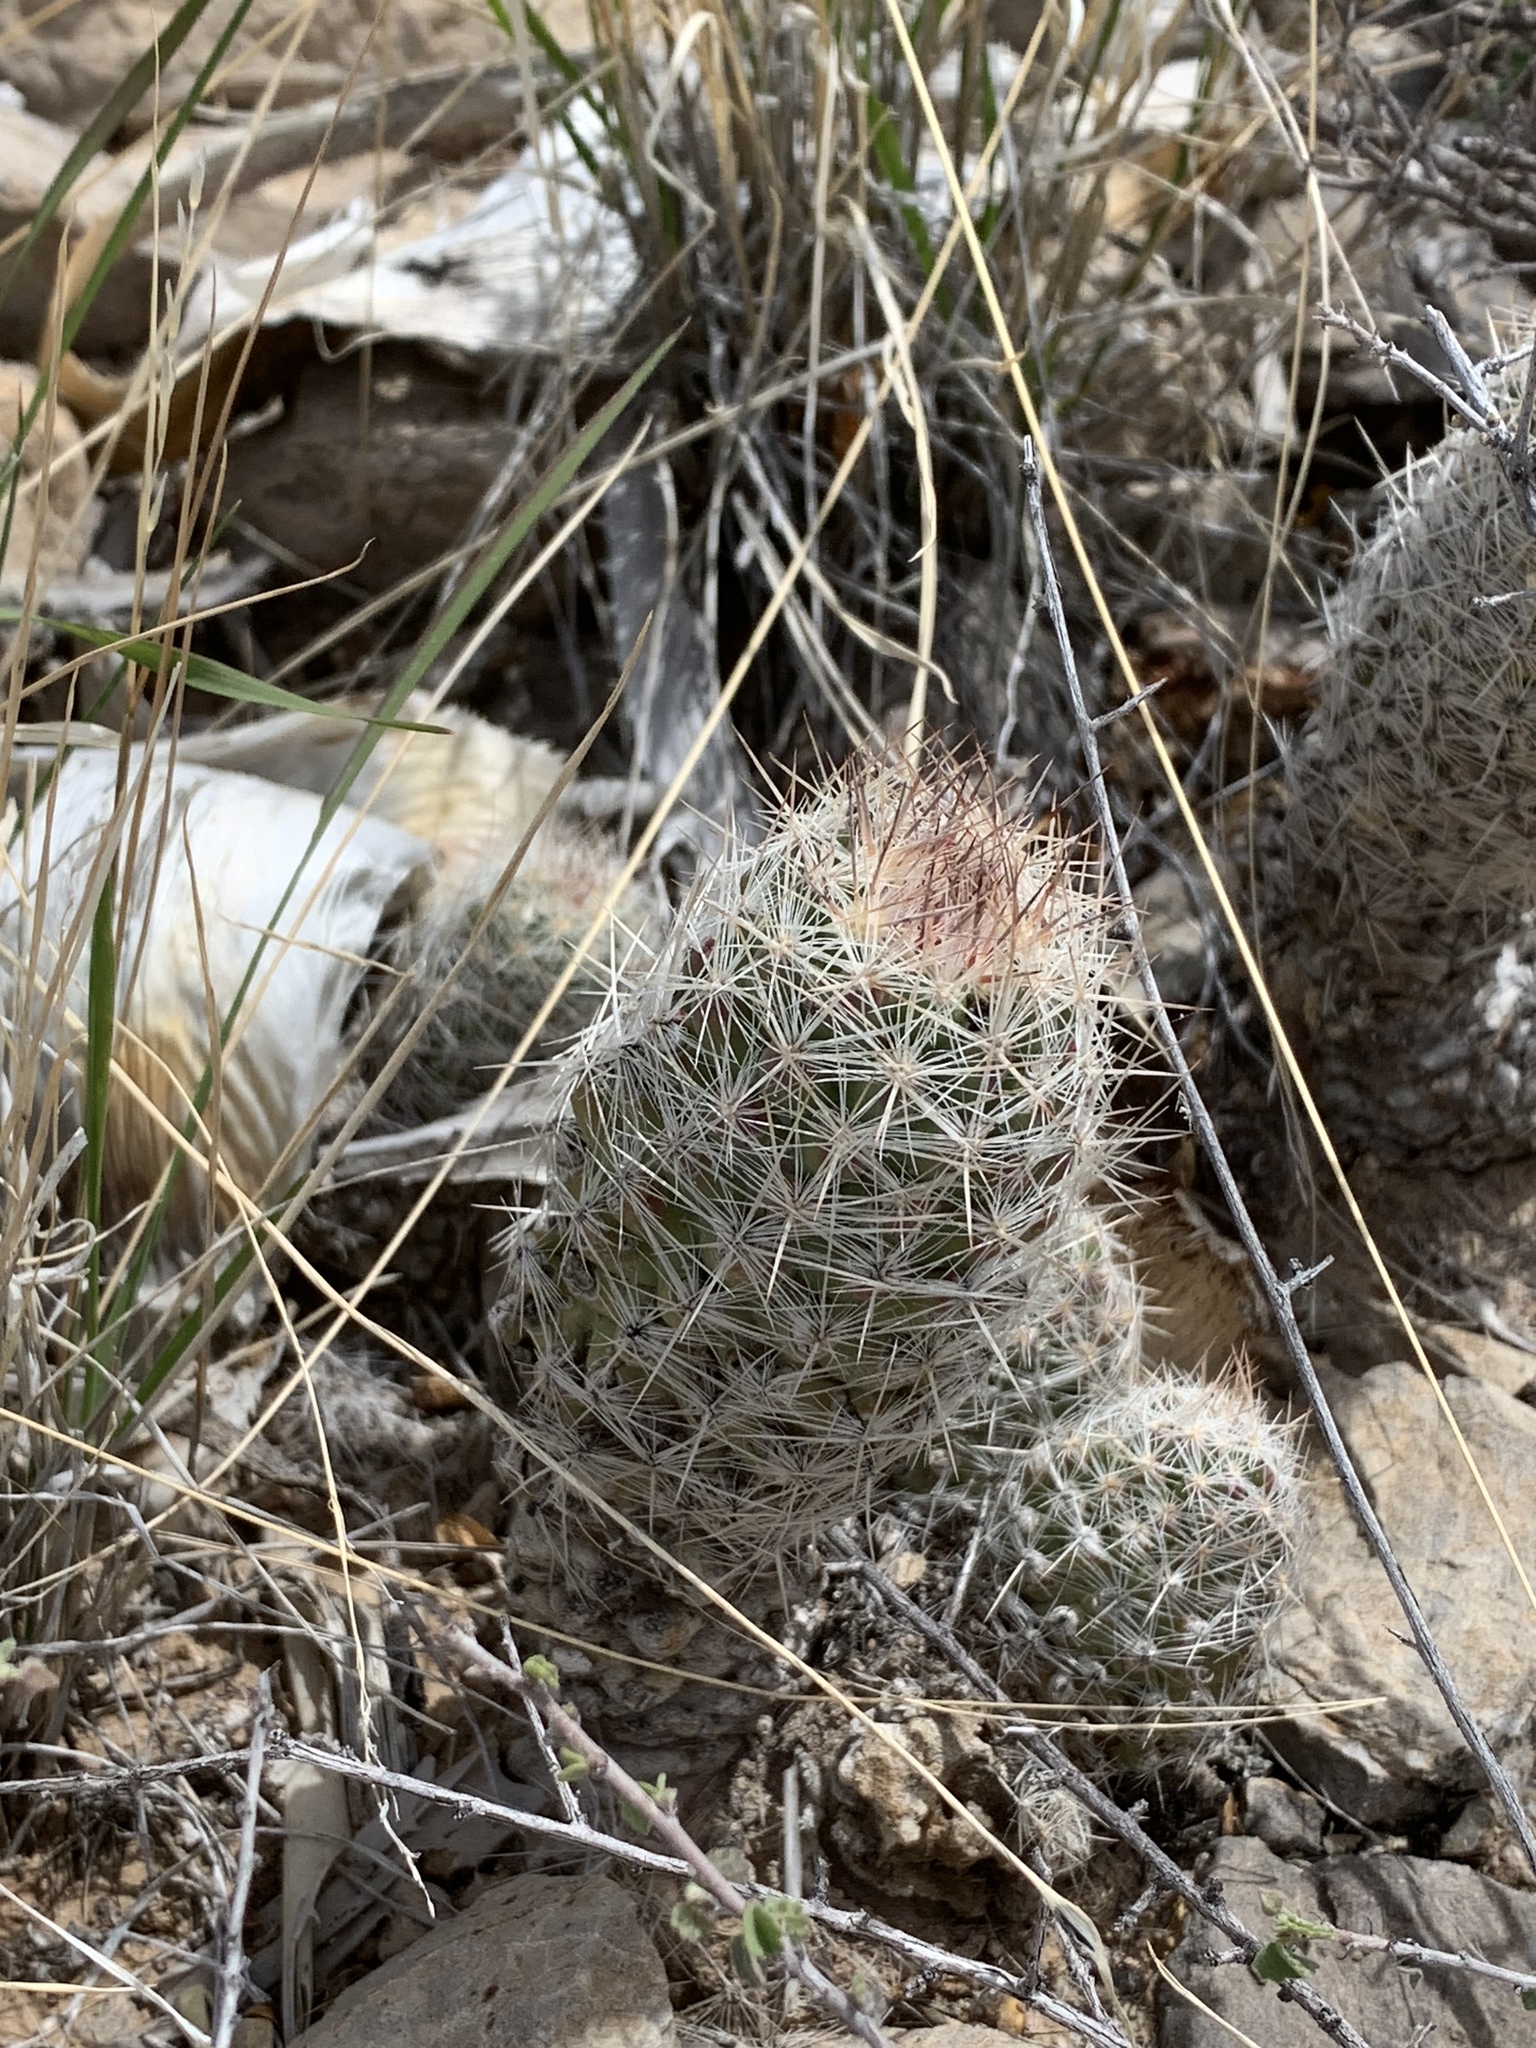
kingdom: Plantae
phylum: Tracheophyta
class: Magnoliopsida
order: Caryophyllales
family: Cactaceae
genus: Pelecyphora
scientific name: Pelecyphora tuberculosa
